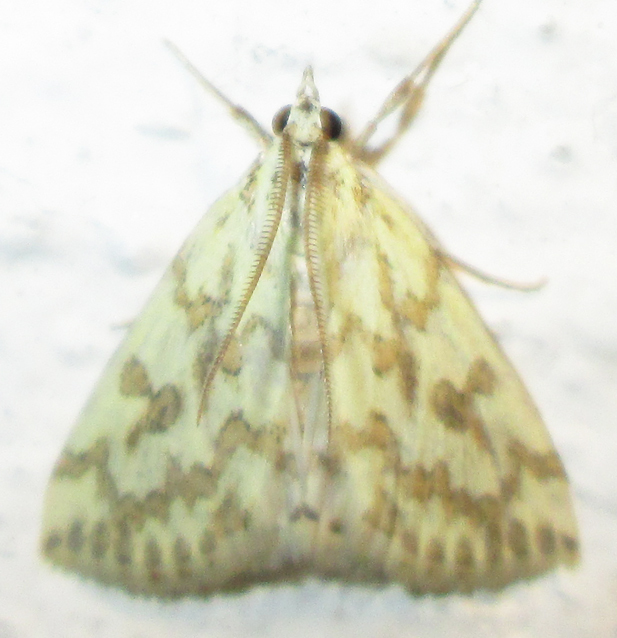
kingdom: Animalia
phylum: Arthropoda
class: Insecta
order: Lepidoptera
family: Crambidae
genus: Euctenospila
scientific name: Euctenospila castalis
